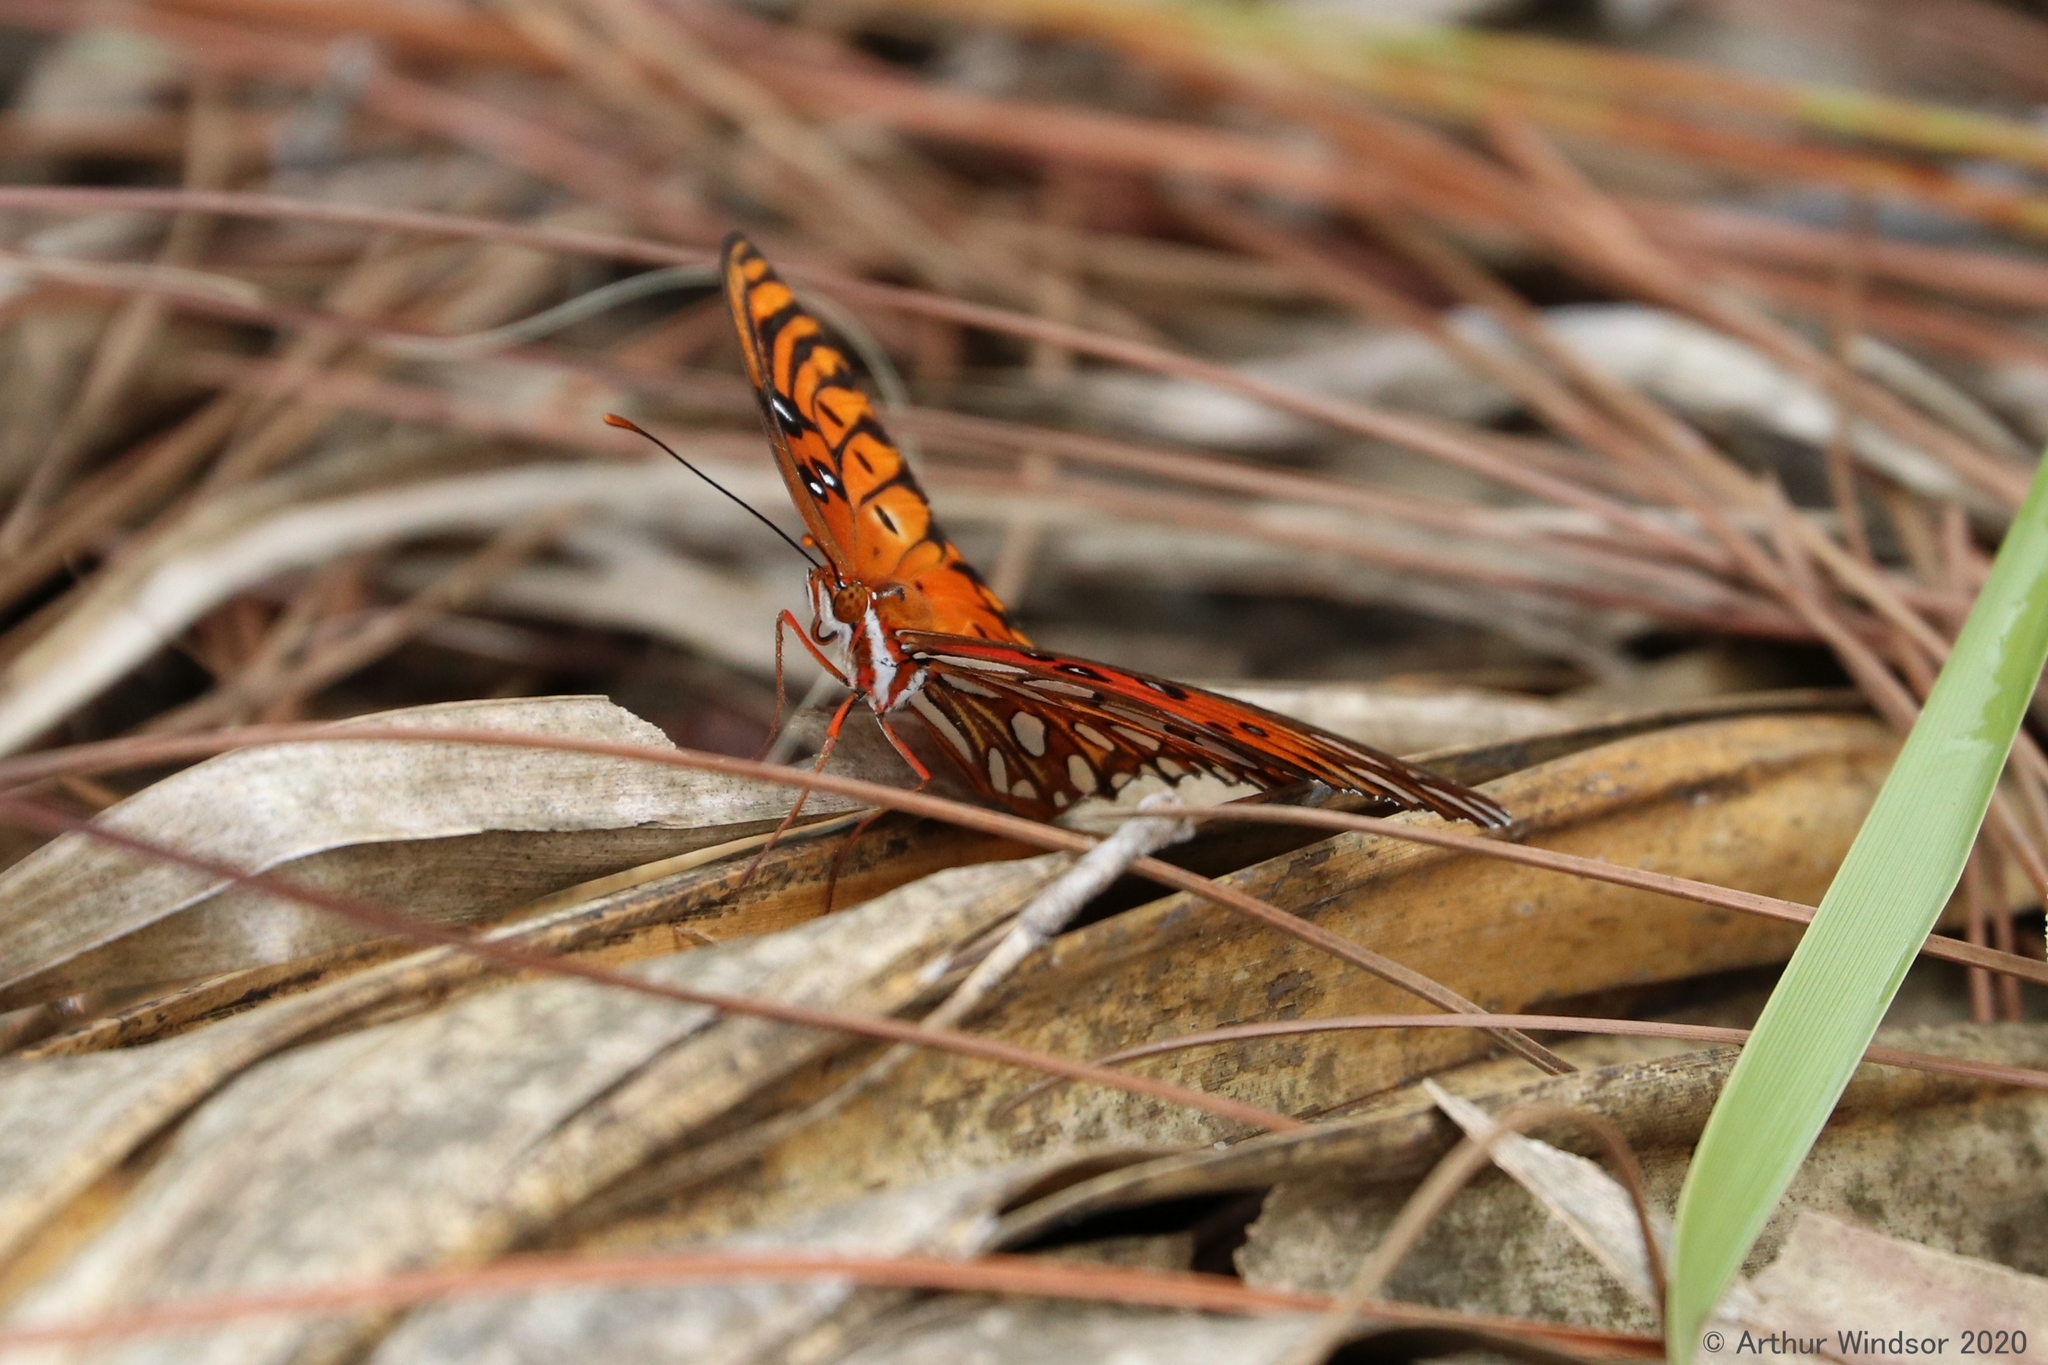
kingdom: Animalia
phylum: Arthropoda
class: Insecta
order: Lepidoptera
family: Nymphalidae
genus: Dione
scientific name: Dione vanillae
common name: Gulf fritillary
